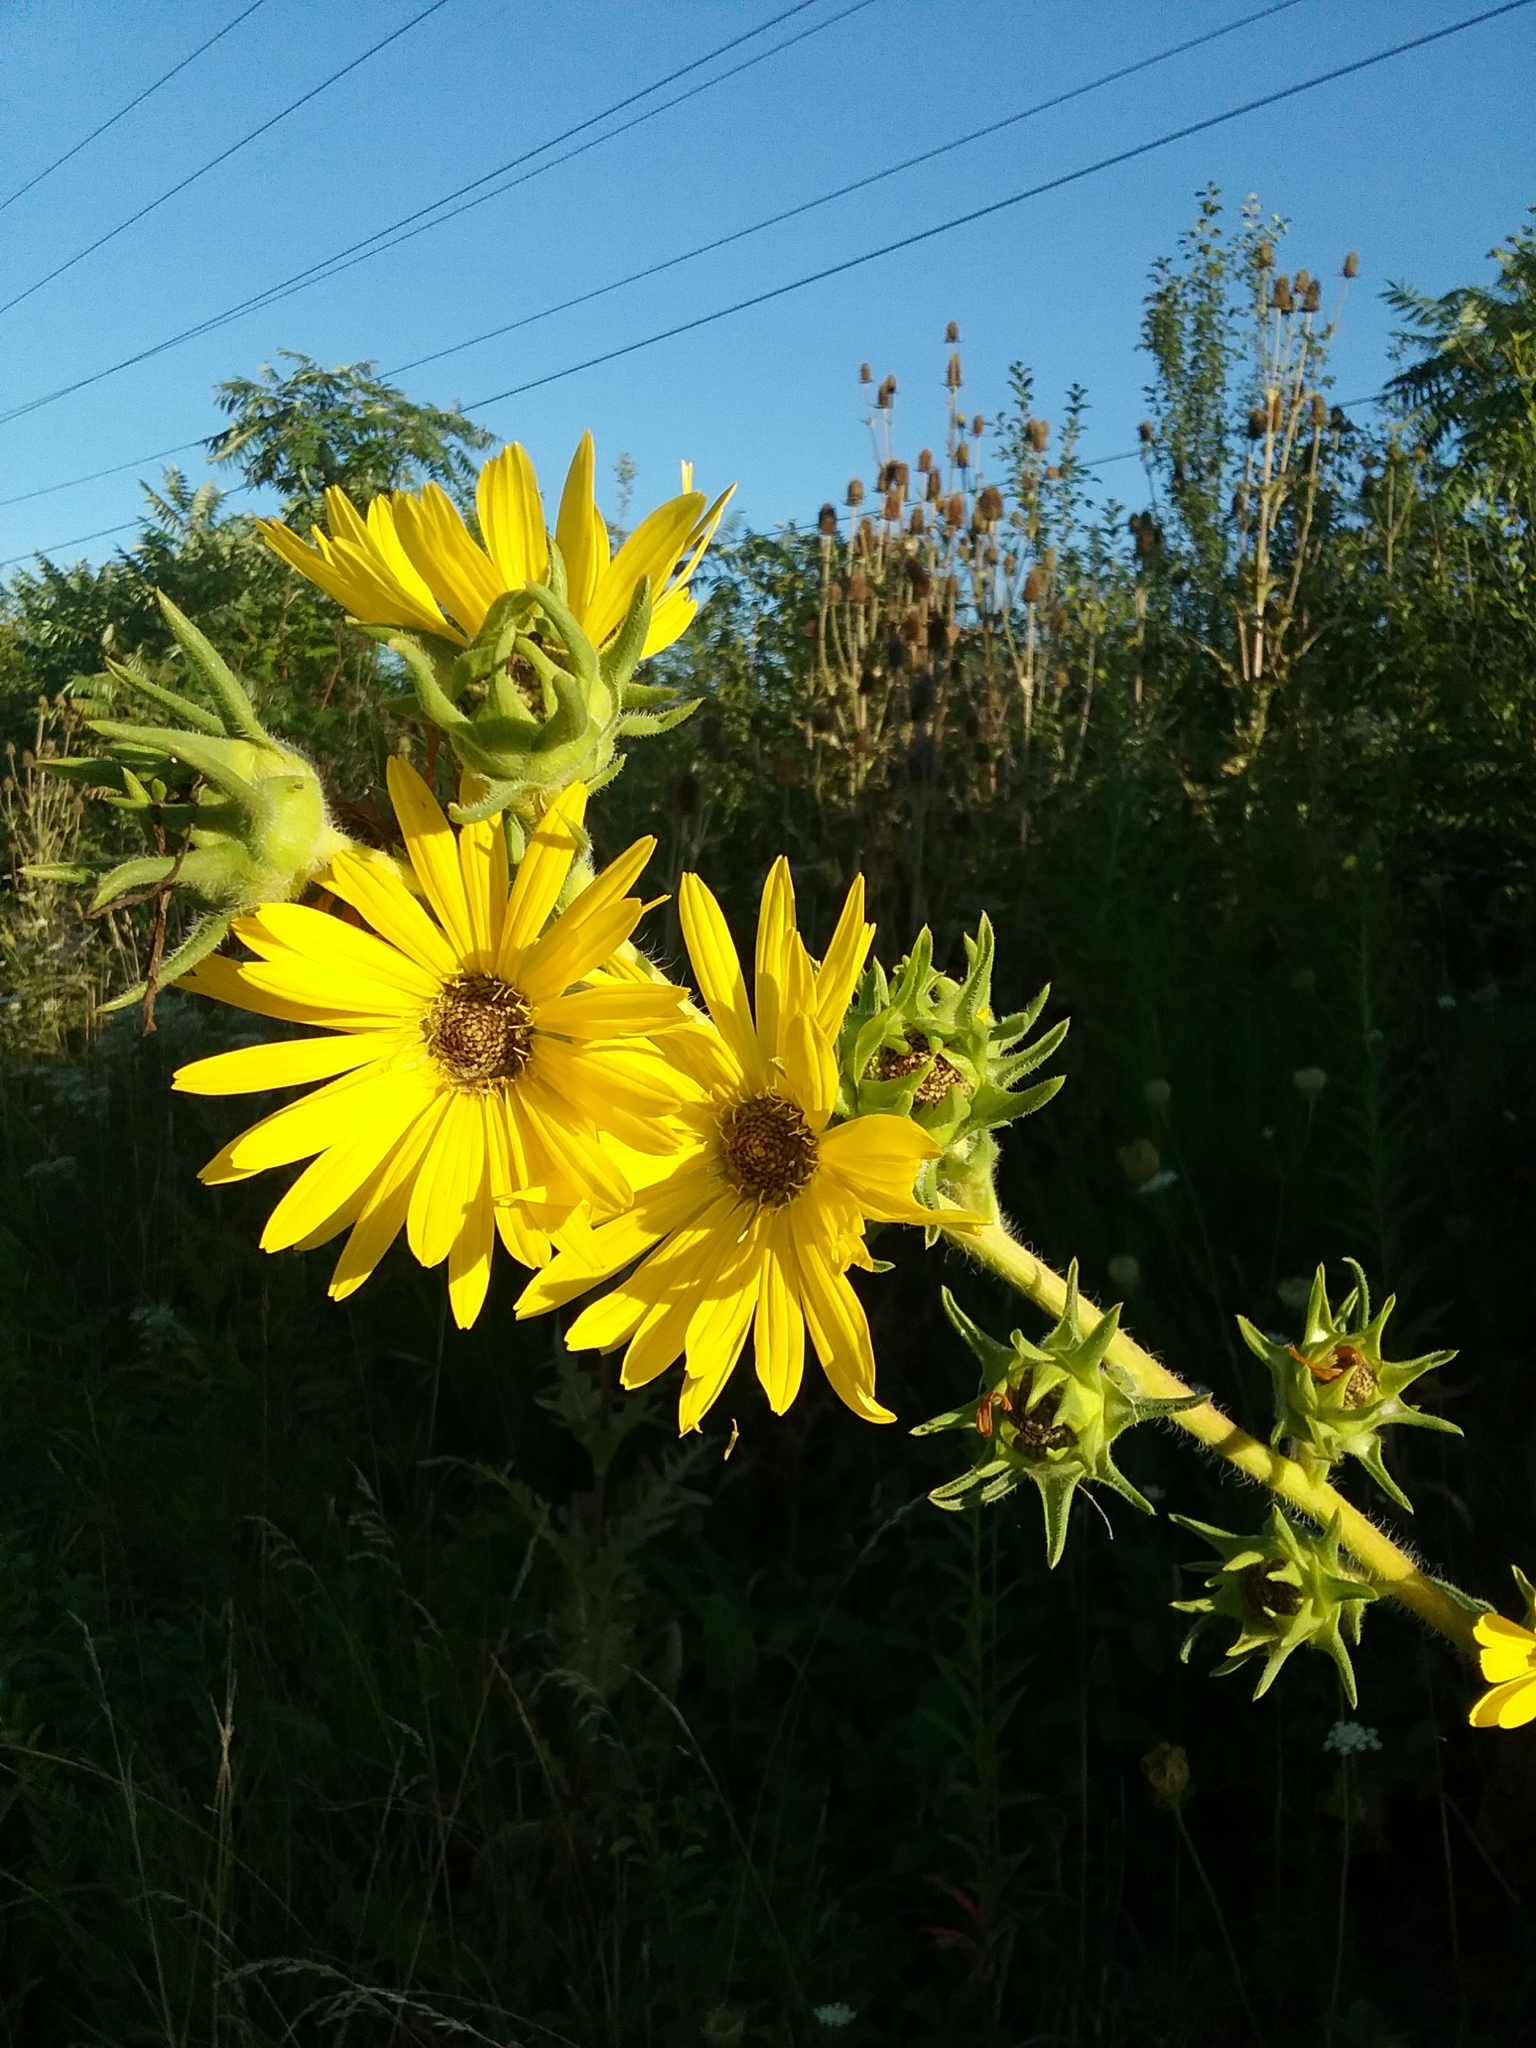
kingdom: Plantae
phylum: Tracheophyta
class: Magnoliopsida
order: Asterales
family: Asteraceae
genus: Silphium
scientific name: Silphium laciniatum
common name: Polarplant
